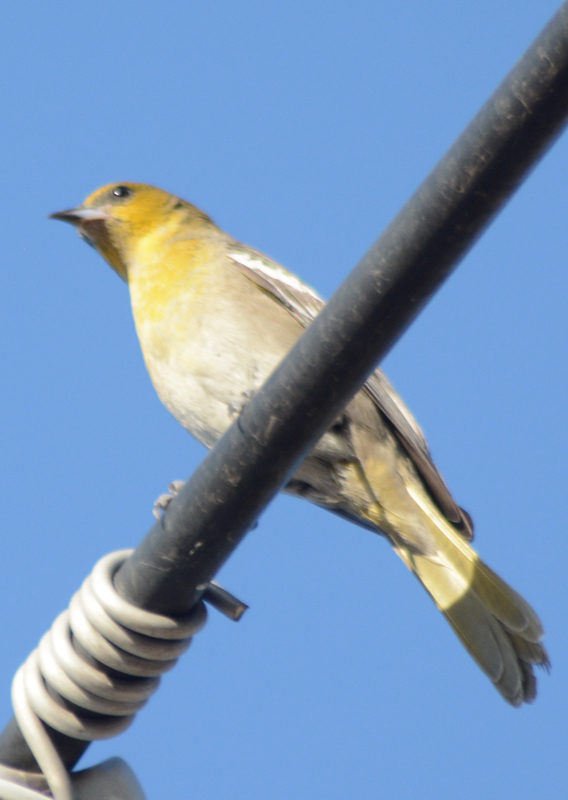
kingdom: Animalia
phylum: Chordata
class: Aves
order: Passeriformes
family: Icteridae
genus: Icterus
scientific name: Icterus abeillei
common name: Black-backed oriole
